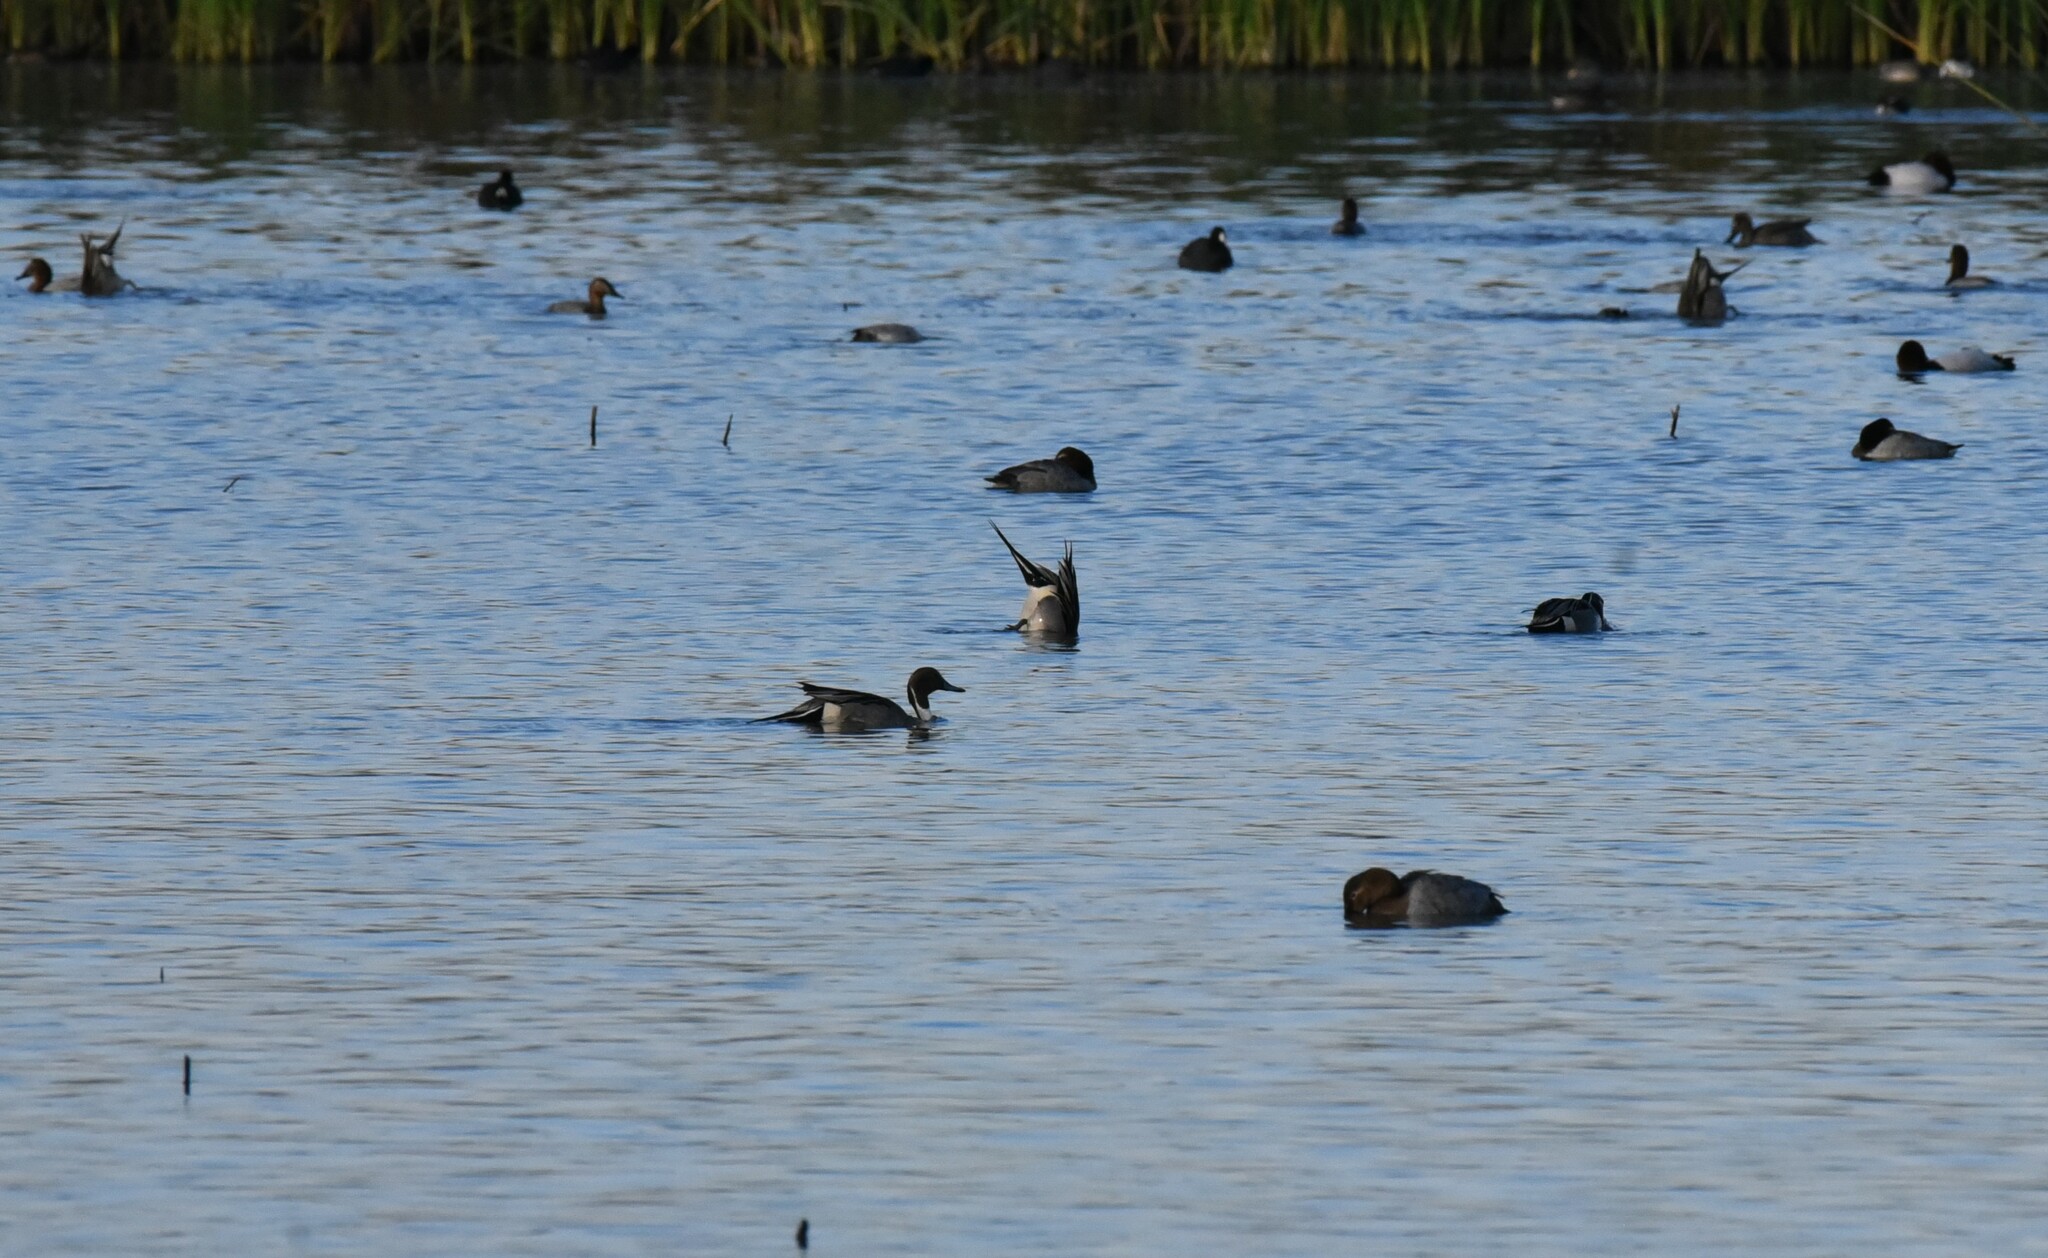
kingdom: Animalia
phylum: Chordata
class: Aves
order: Anseriformes
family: Anatidae
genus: Anas
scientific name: Anas acuta
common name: Northern pintail
